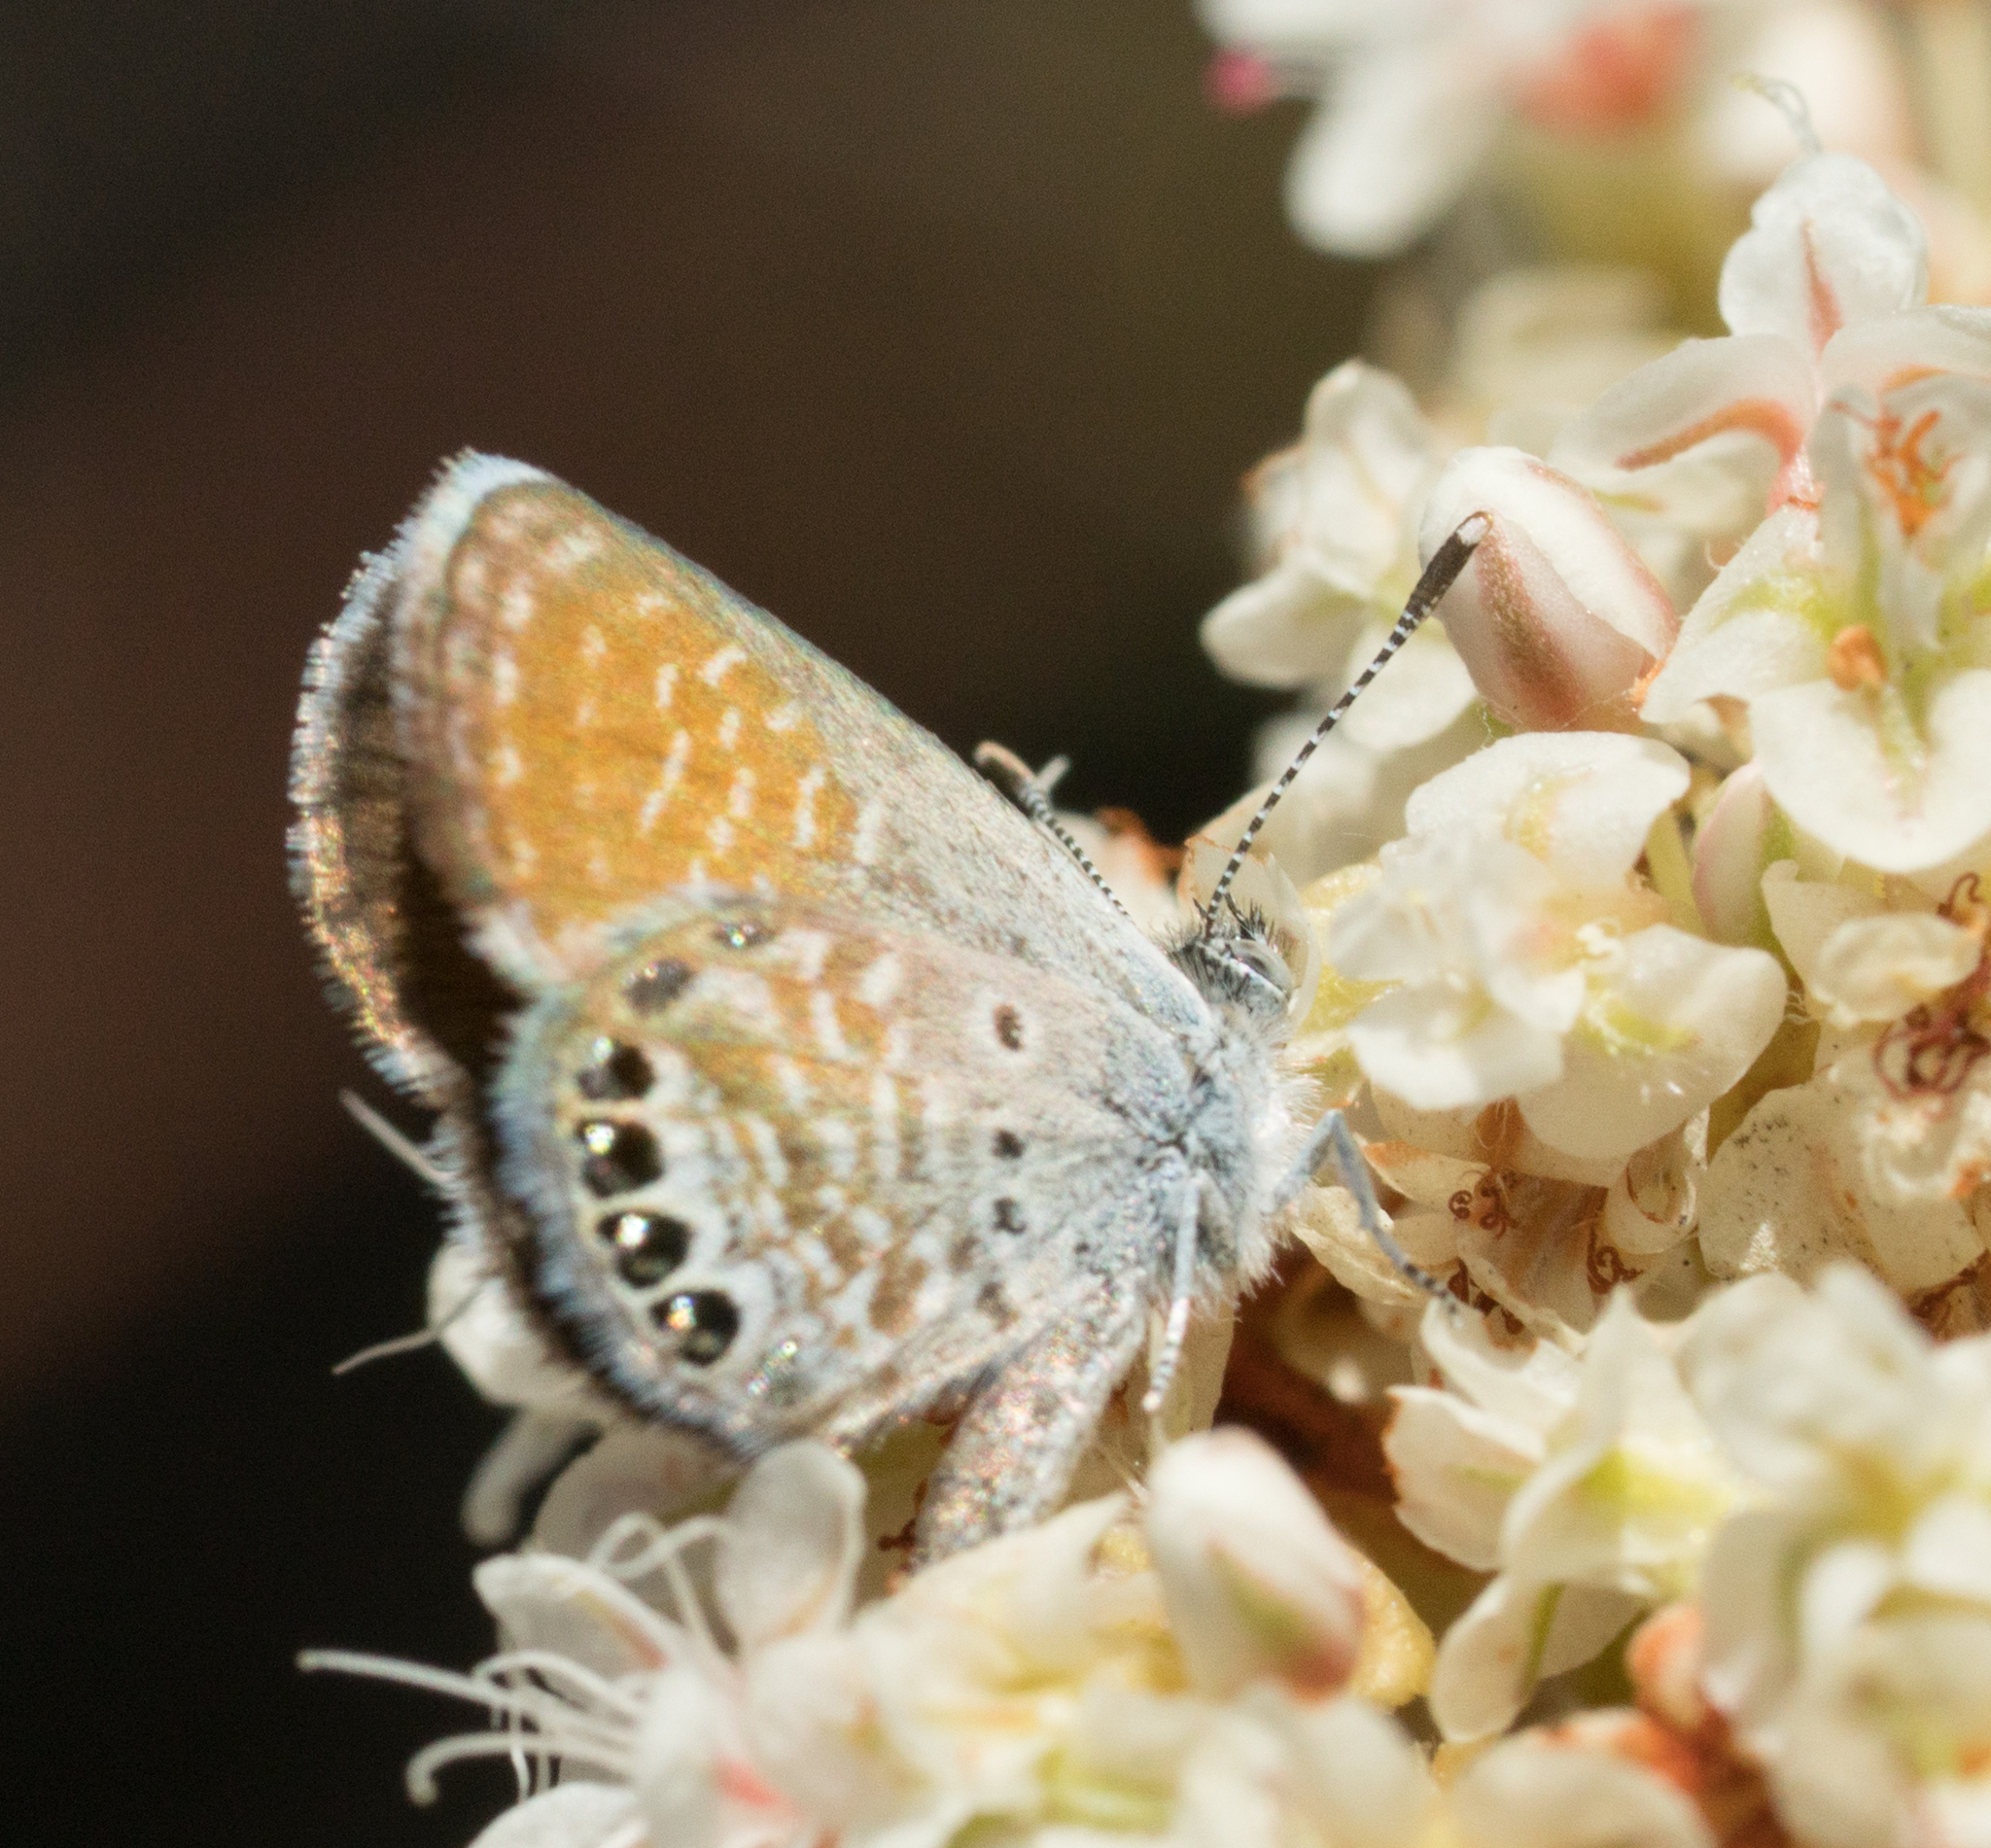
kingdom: Animalia
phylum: Arthropoda
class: Insecta
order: Lepidoptera
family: Lycaenidae
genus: Brephidium
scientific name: Brephidium exilis
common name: Pygmy blue
